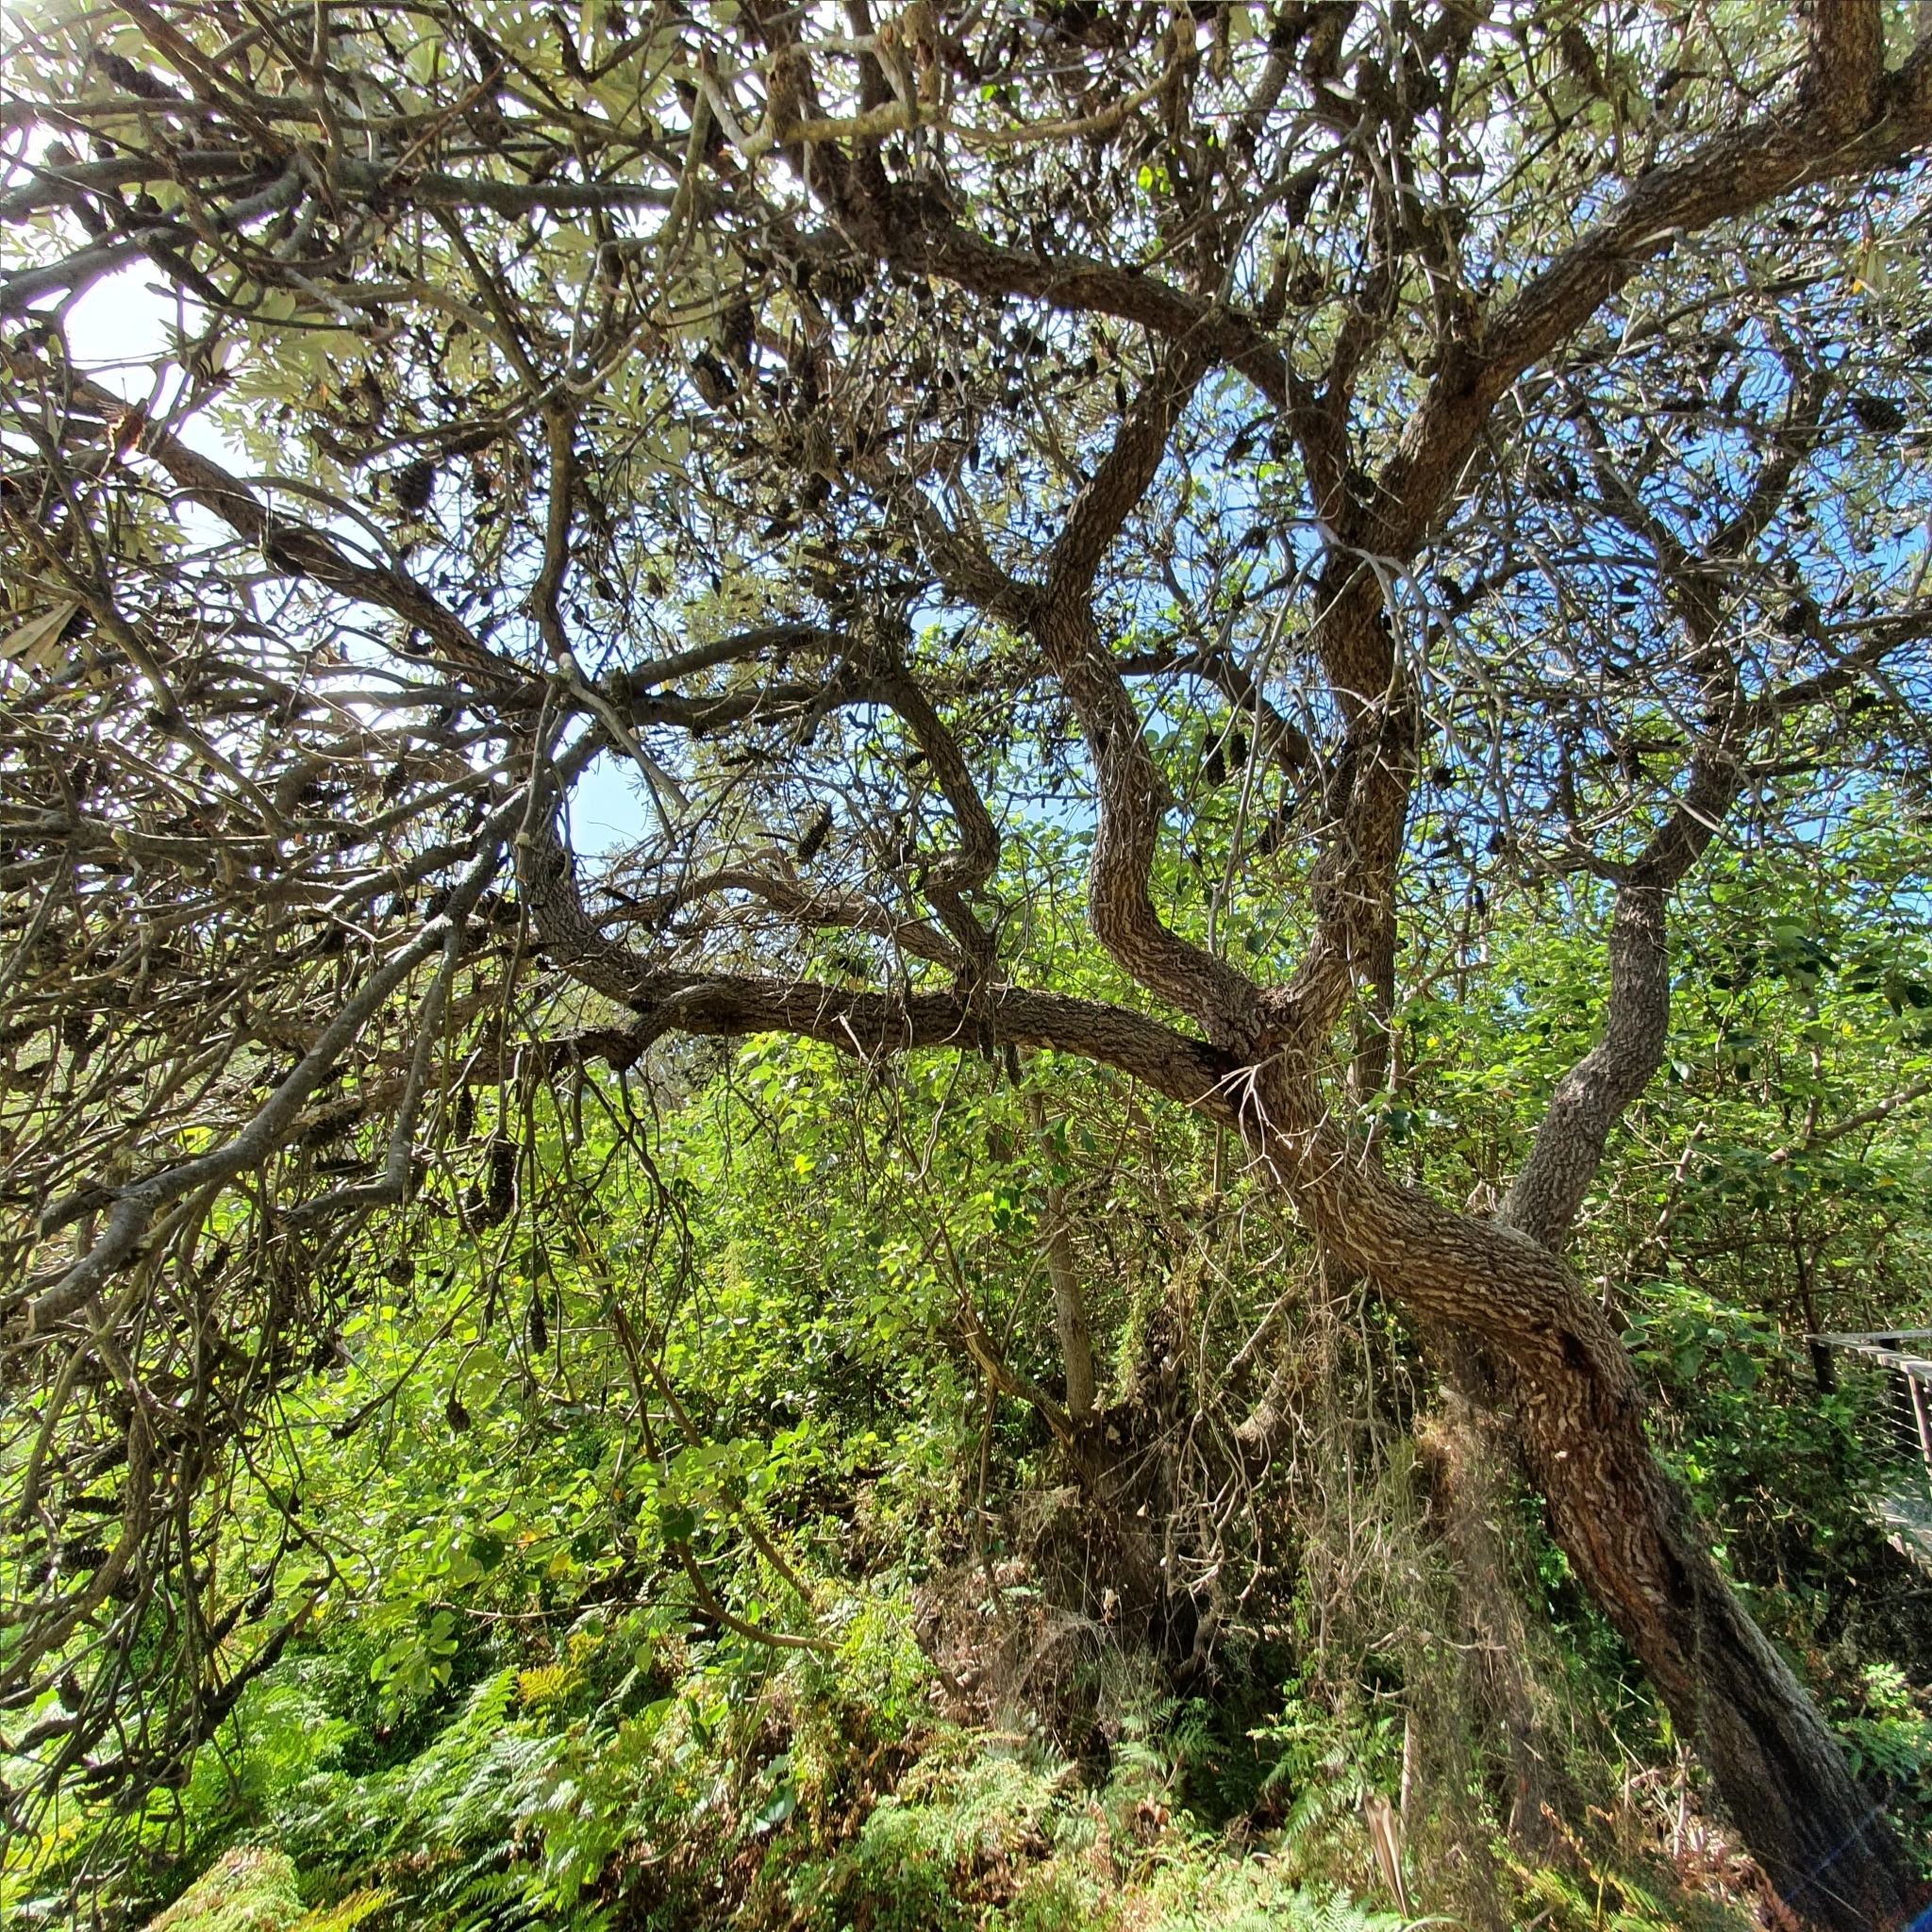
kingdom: Plantae
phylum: Tracheophyta
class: Magnoliopsida
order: Proteales
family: Proteaceae
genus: Banksia
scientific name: Banksia integrifolia
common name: White-honeysuckle
